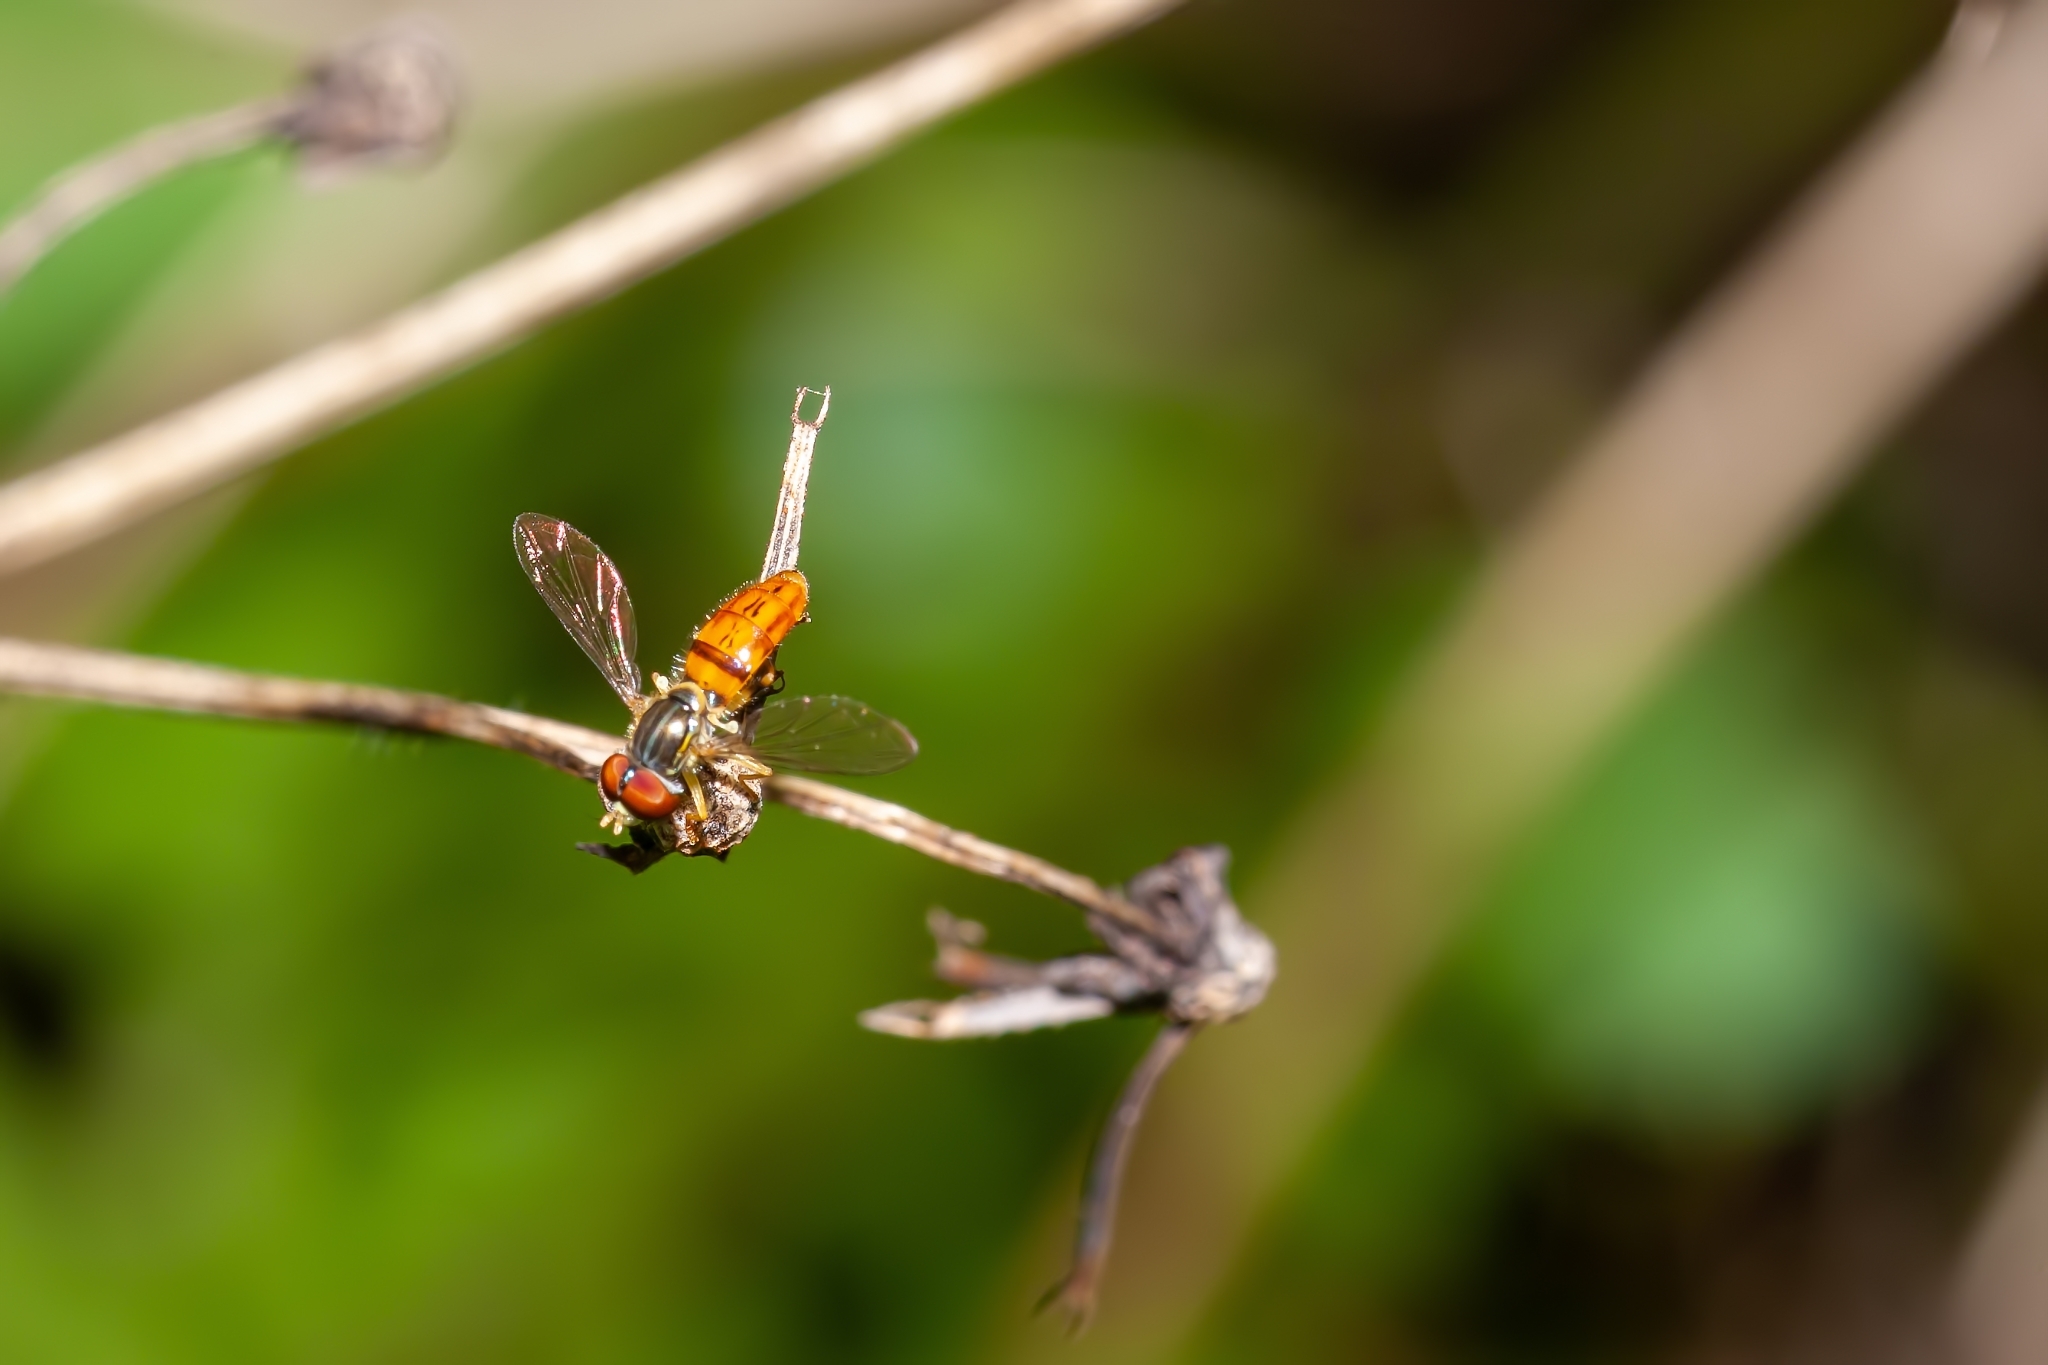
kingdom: Animalia
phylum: Arthropoda
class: Insecta
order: Diptera
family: Syrphidae
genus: Toxomerus
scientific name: Toxomerus boscii
